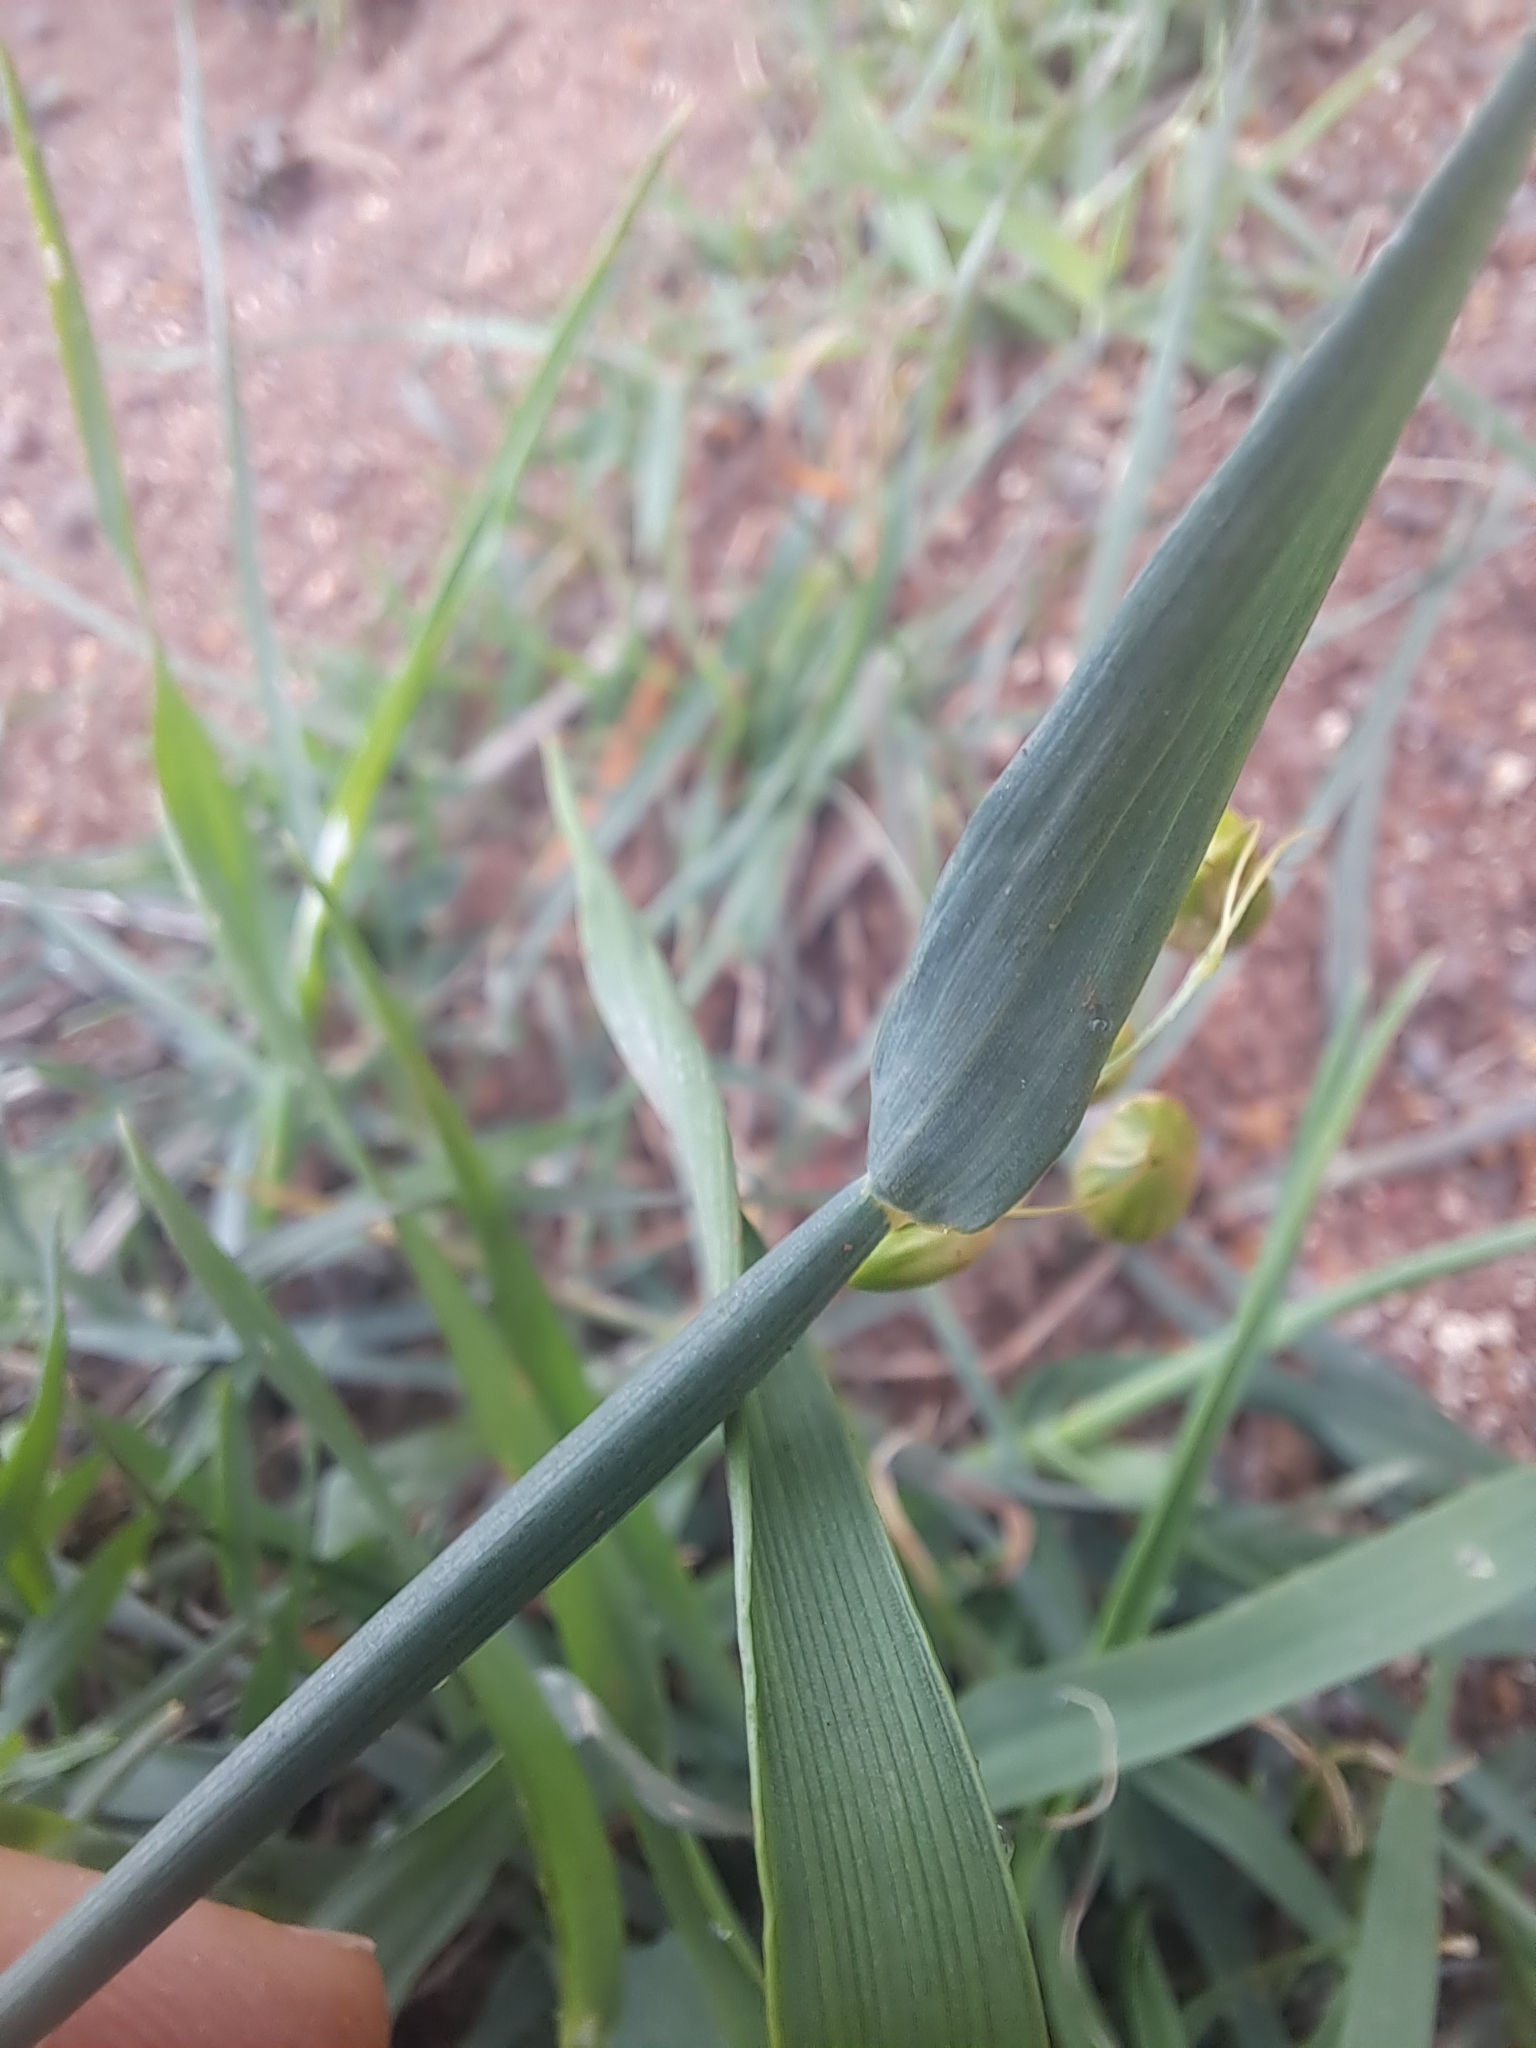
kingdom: Plantae
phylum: Tracheophyta
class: Liliopsida
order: Poales
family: Poaceae
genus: Briza
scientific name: Briza maxima
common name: Big quakinggrass
